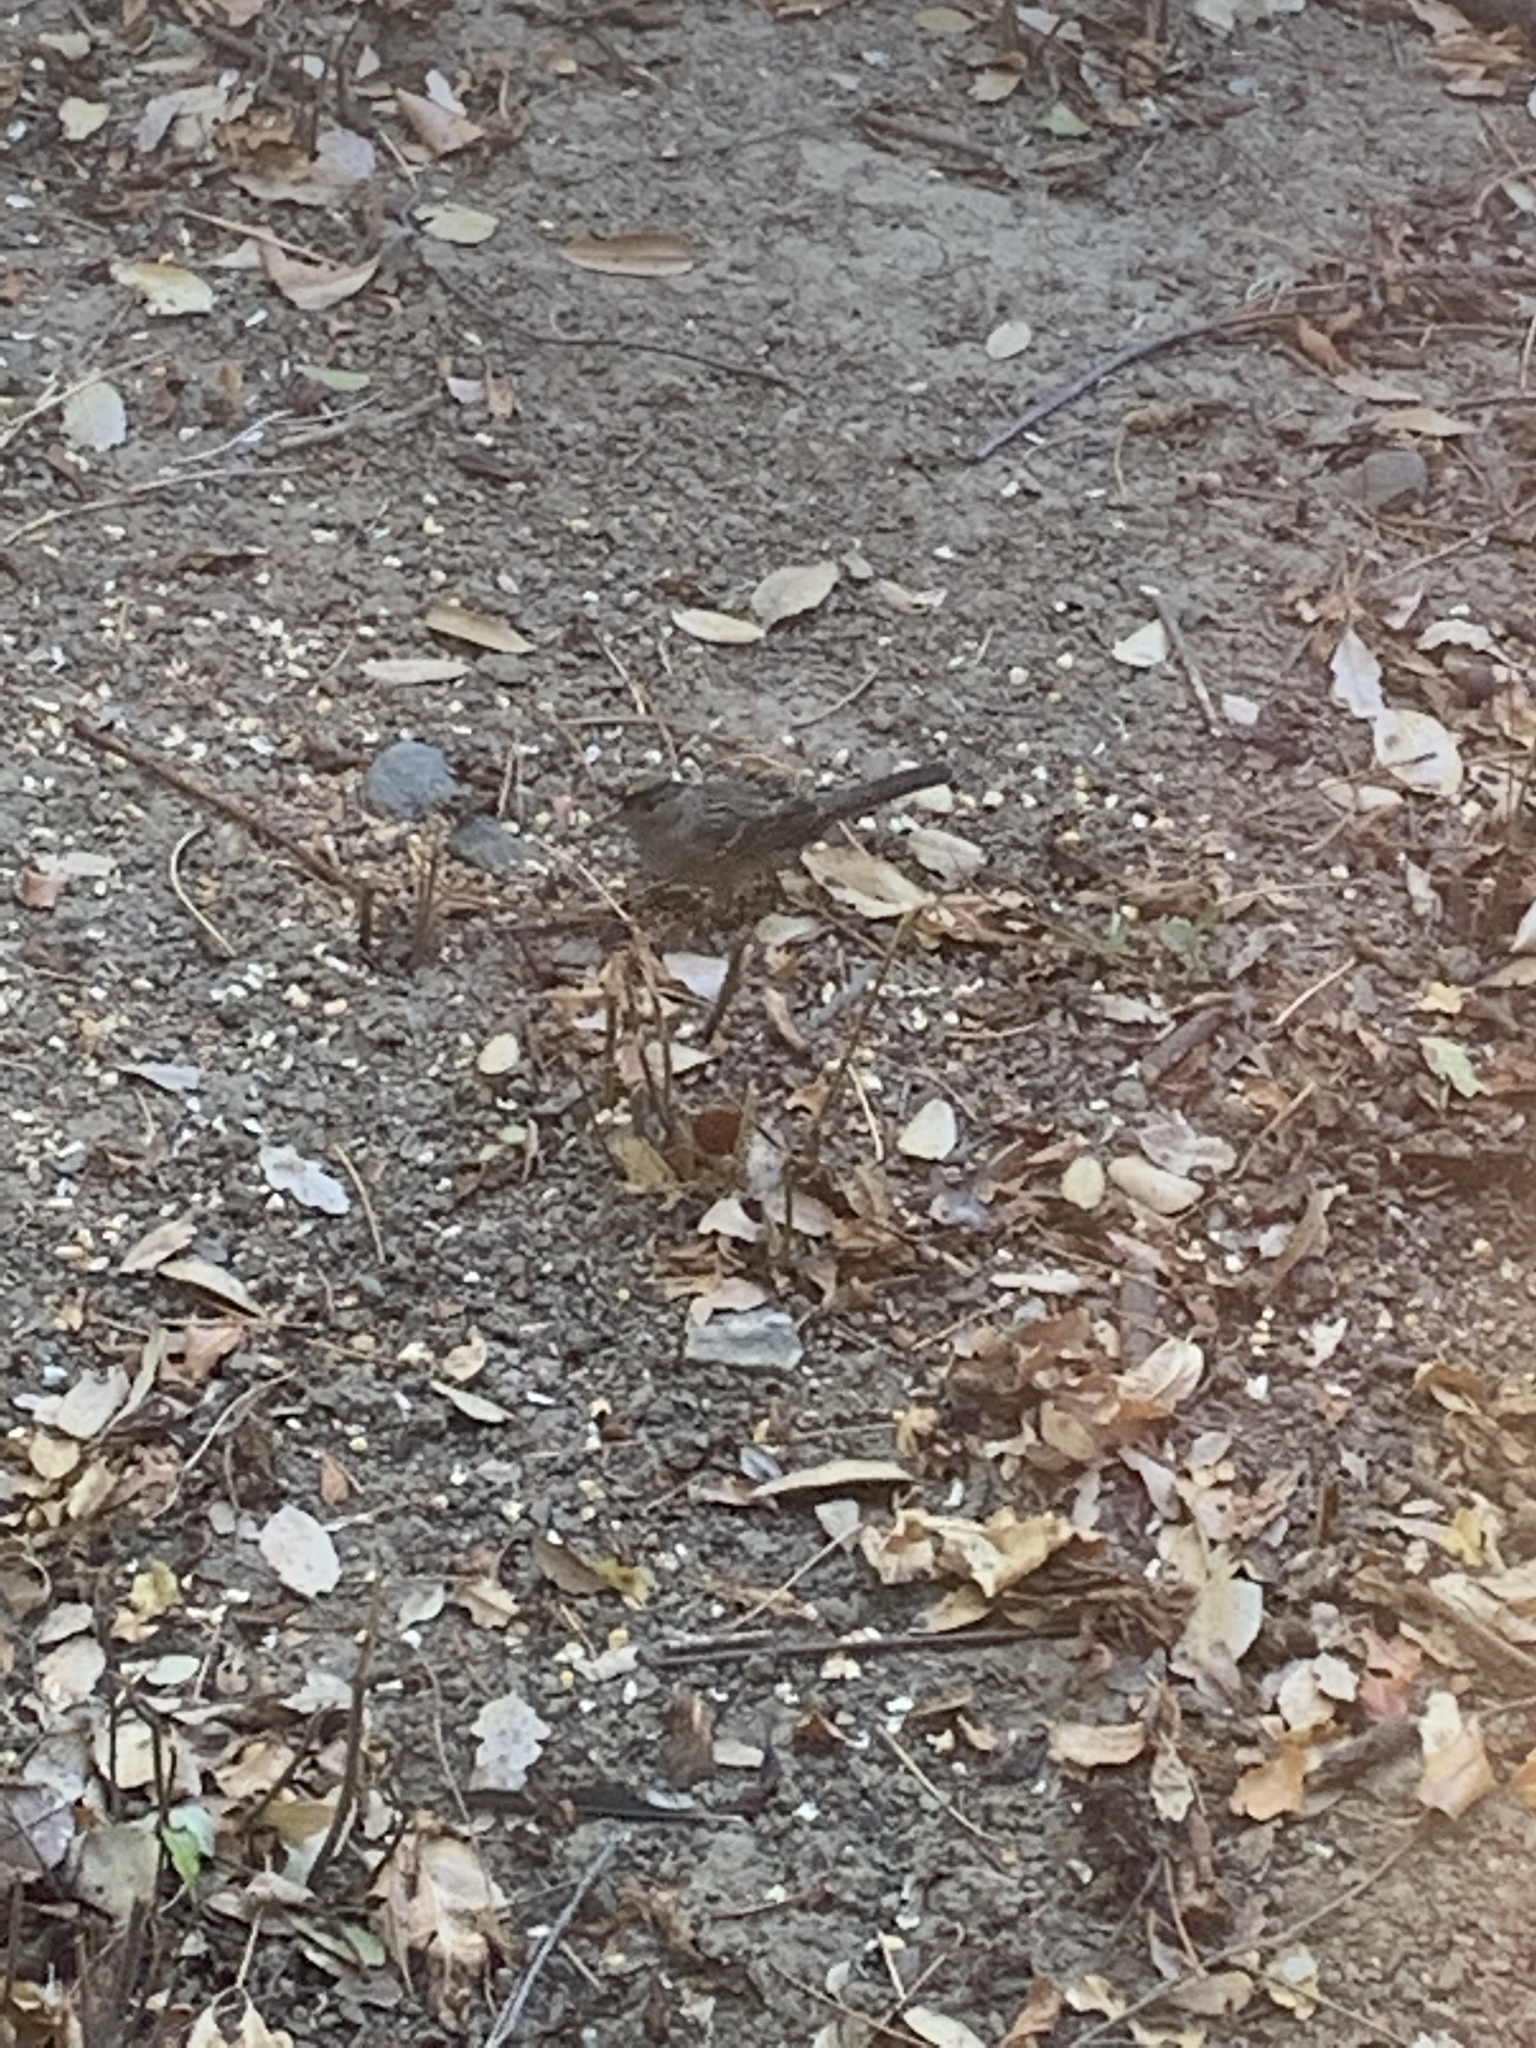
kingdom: Animalia
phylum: Chordata
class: Aves
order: Passeriformes
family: Passerellidae
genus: Zonotrichia
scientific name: Zonotrichia atricapilla
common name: Golden-crowned sparrow
